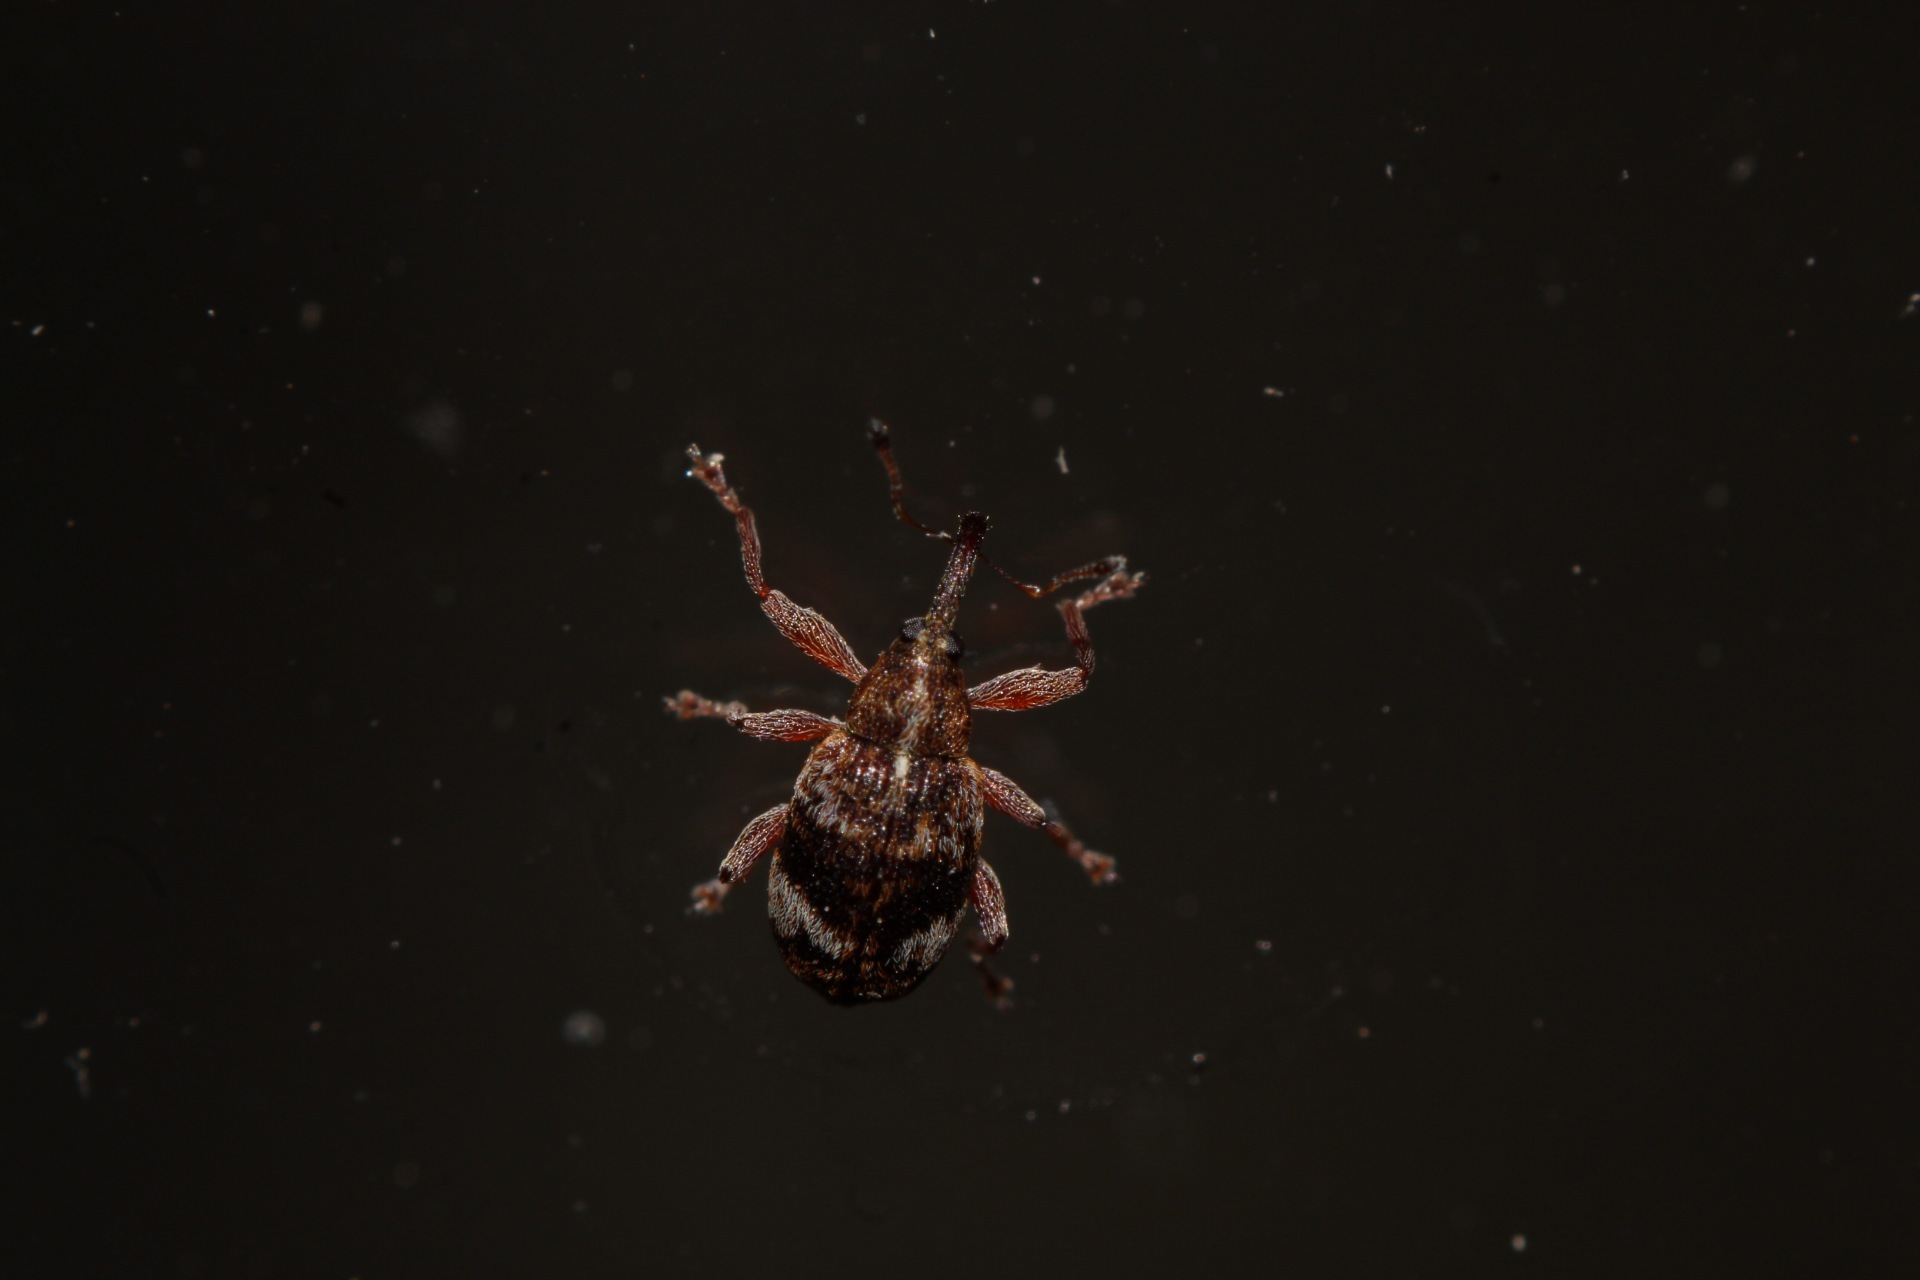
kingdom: Animalia
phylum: Arthropoda
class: Insecta
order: Coleoptera
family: Curculionidae
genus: Anthonomus
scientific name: Anthonomus pedicularius
